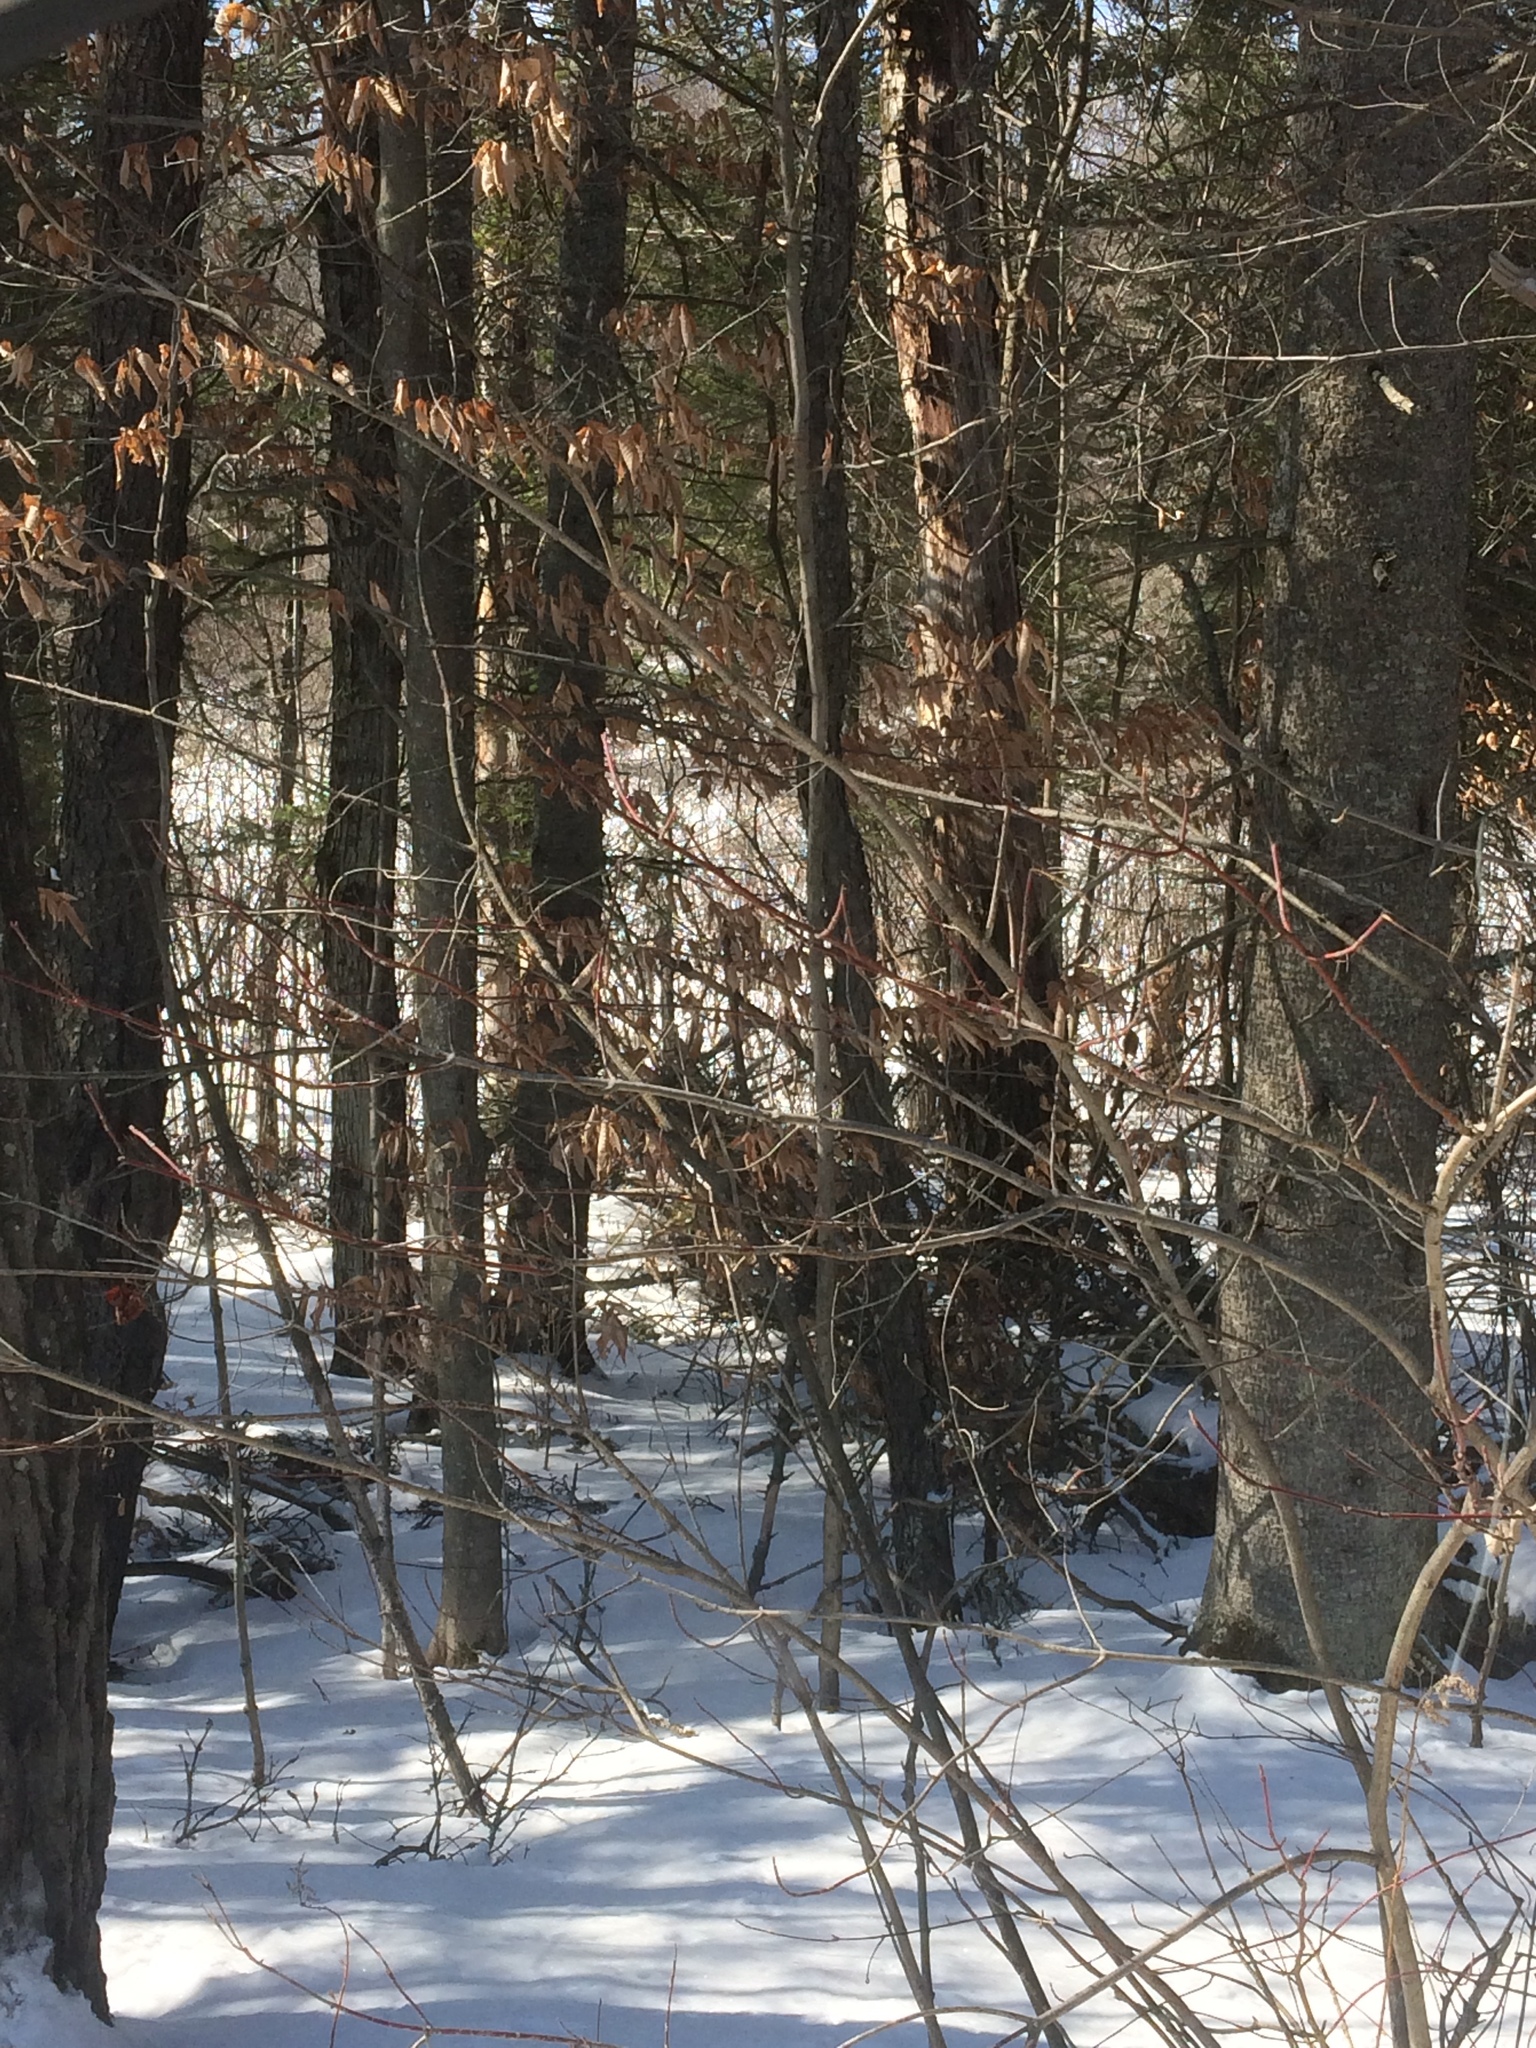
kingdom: Plantae
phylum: Tracheophyta
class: Magnoliopsida
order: Fagales
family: Fagaceae
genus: Fagus
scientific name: Fagus grandifolia
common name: American beech
